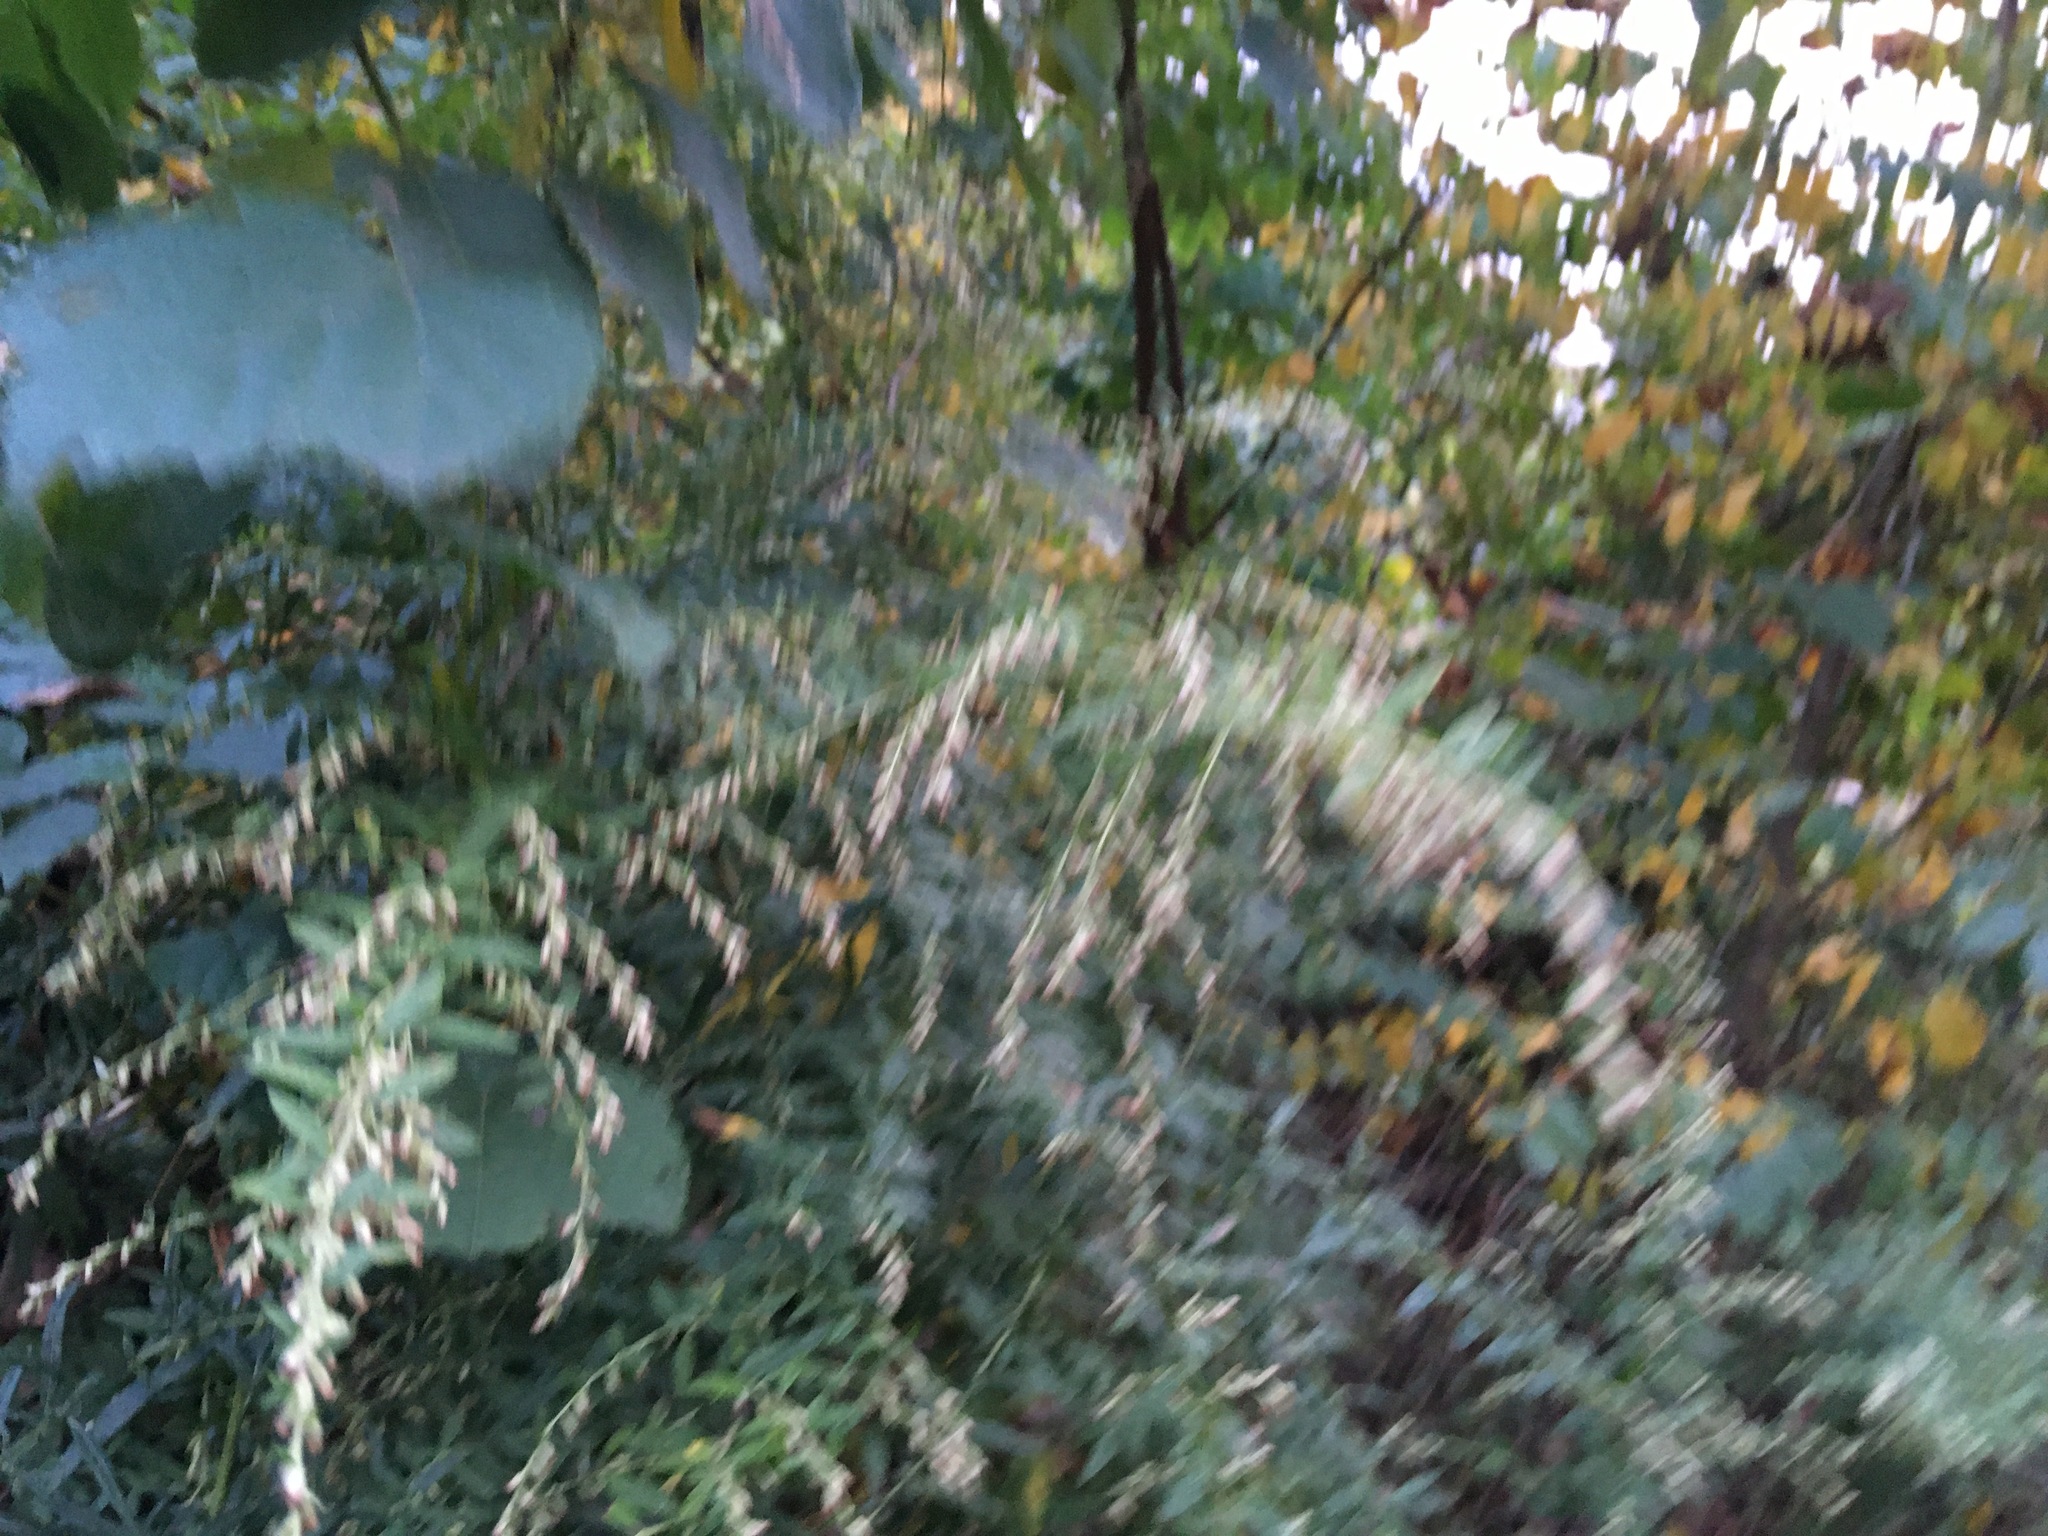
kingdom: Plantae
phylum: Tracheophyta
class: Magnoliopsida
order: Asterales
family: Asteraceae
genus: Artemisia
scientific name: Artemisia vulgaris
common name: Mugwort
